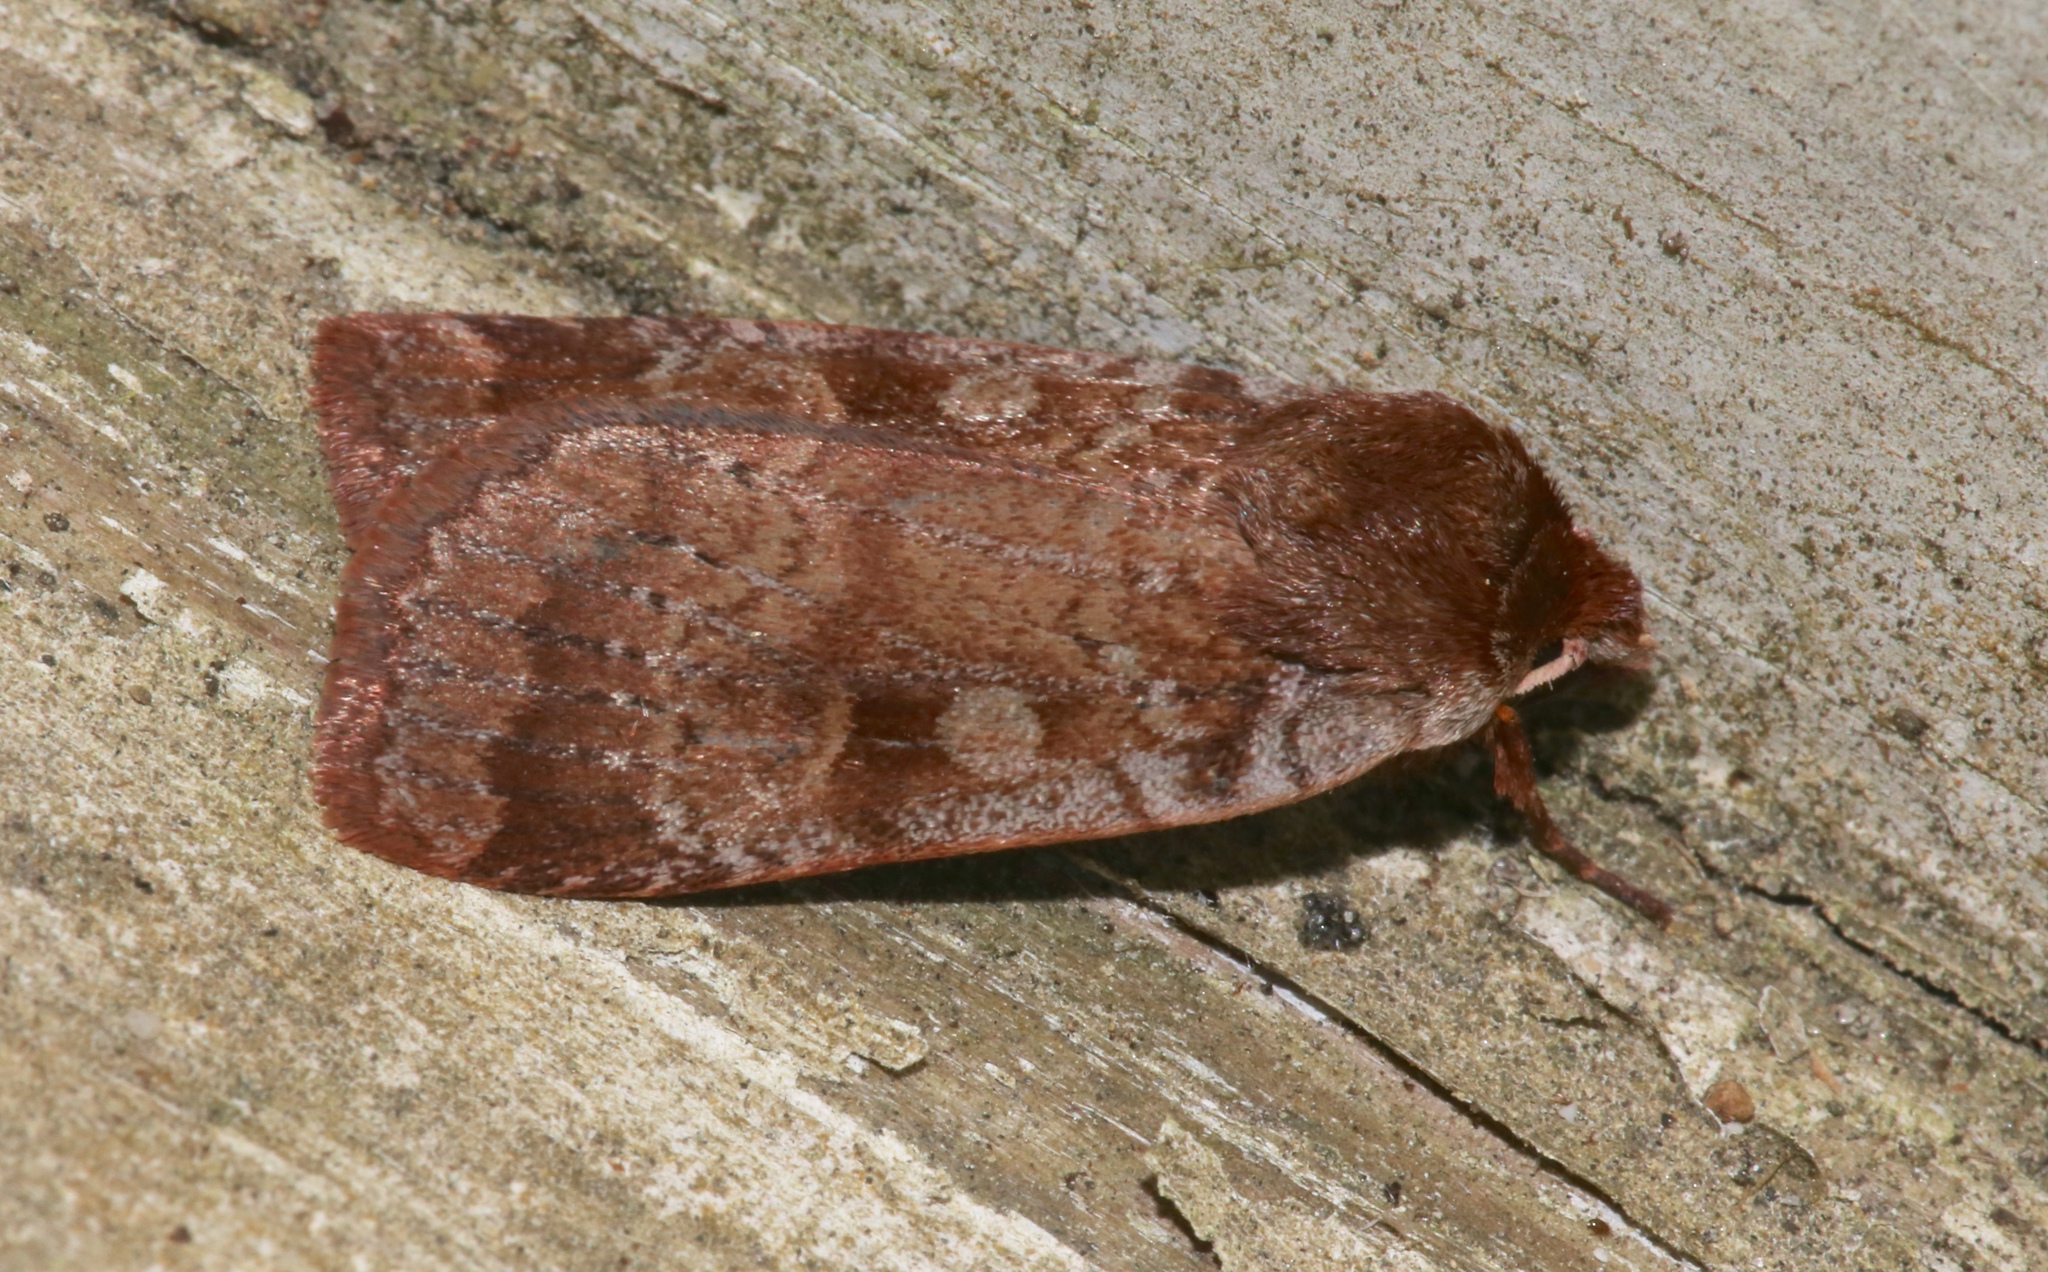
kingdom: Animalia
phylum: Arthropoda
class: Insecta
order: Lepidoptera
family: Noctuidae
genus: Lycophotia
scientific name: Lycophotia phyllophora
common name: Lycophotia moth
